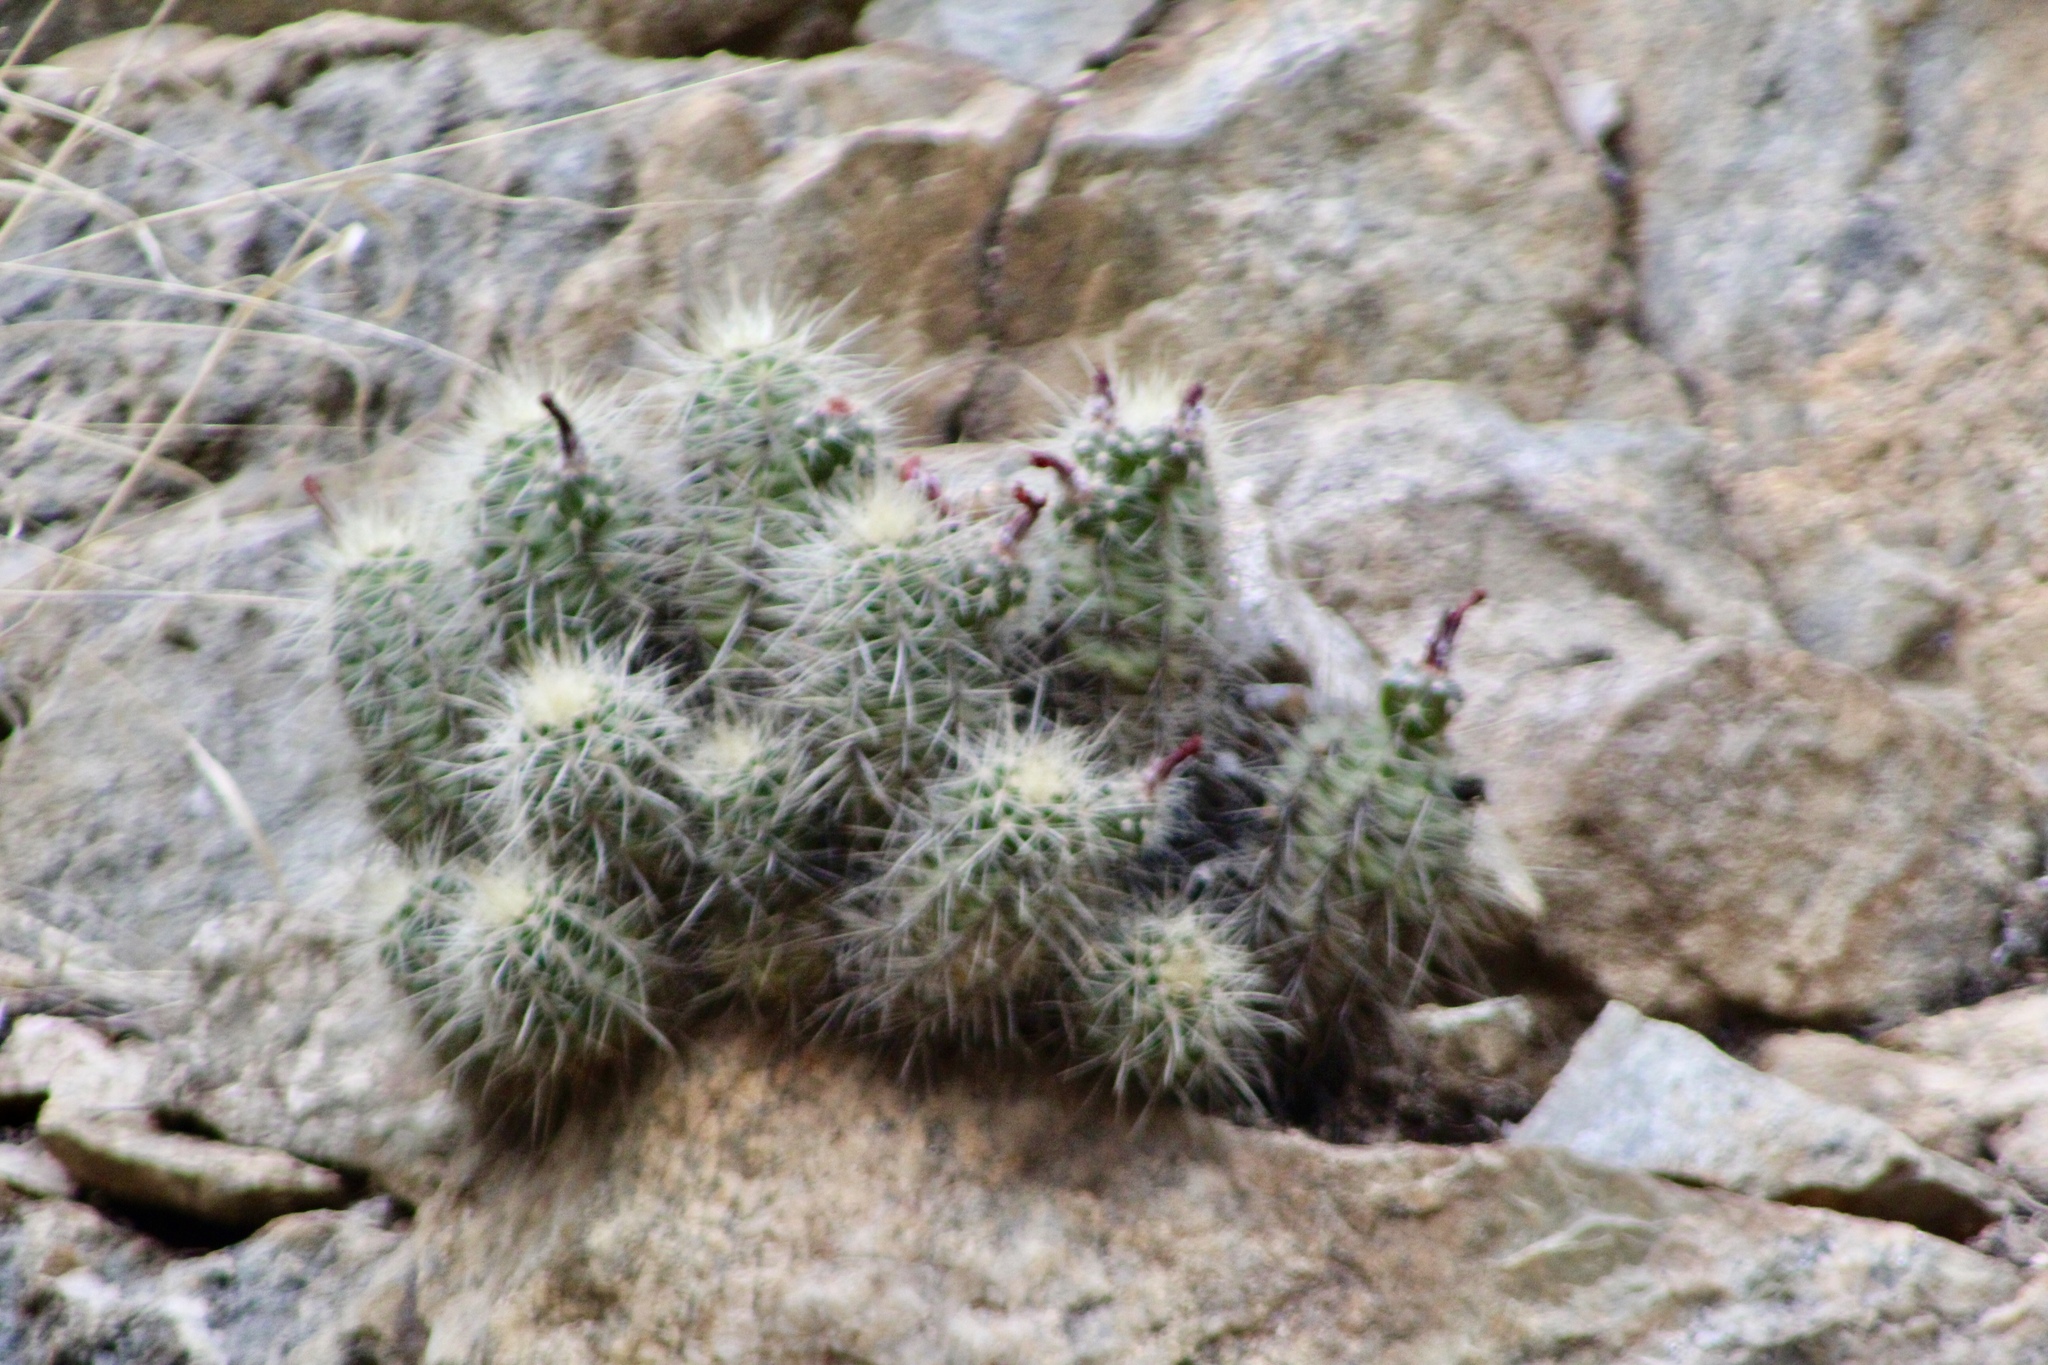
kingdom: Plantae
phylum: Tracheophyta
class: Magnoliopsida
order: Caryophyllales
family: Cactaceae
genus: Echinocereus
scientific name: Echinocereus bakeri
